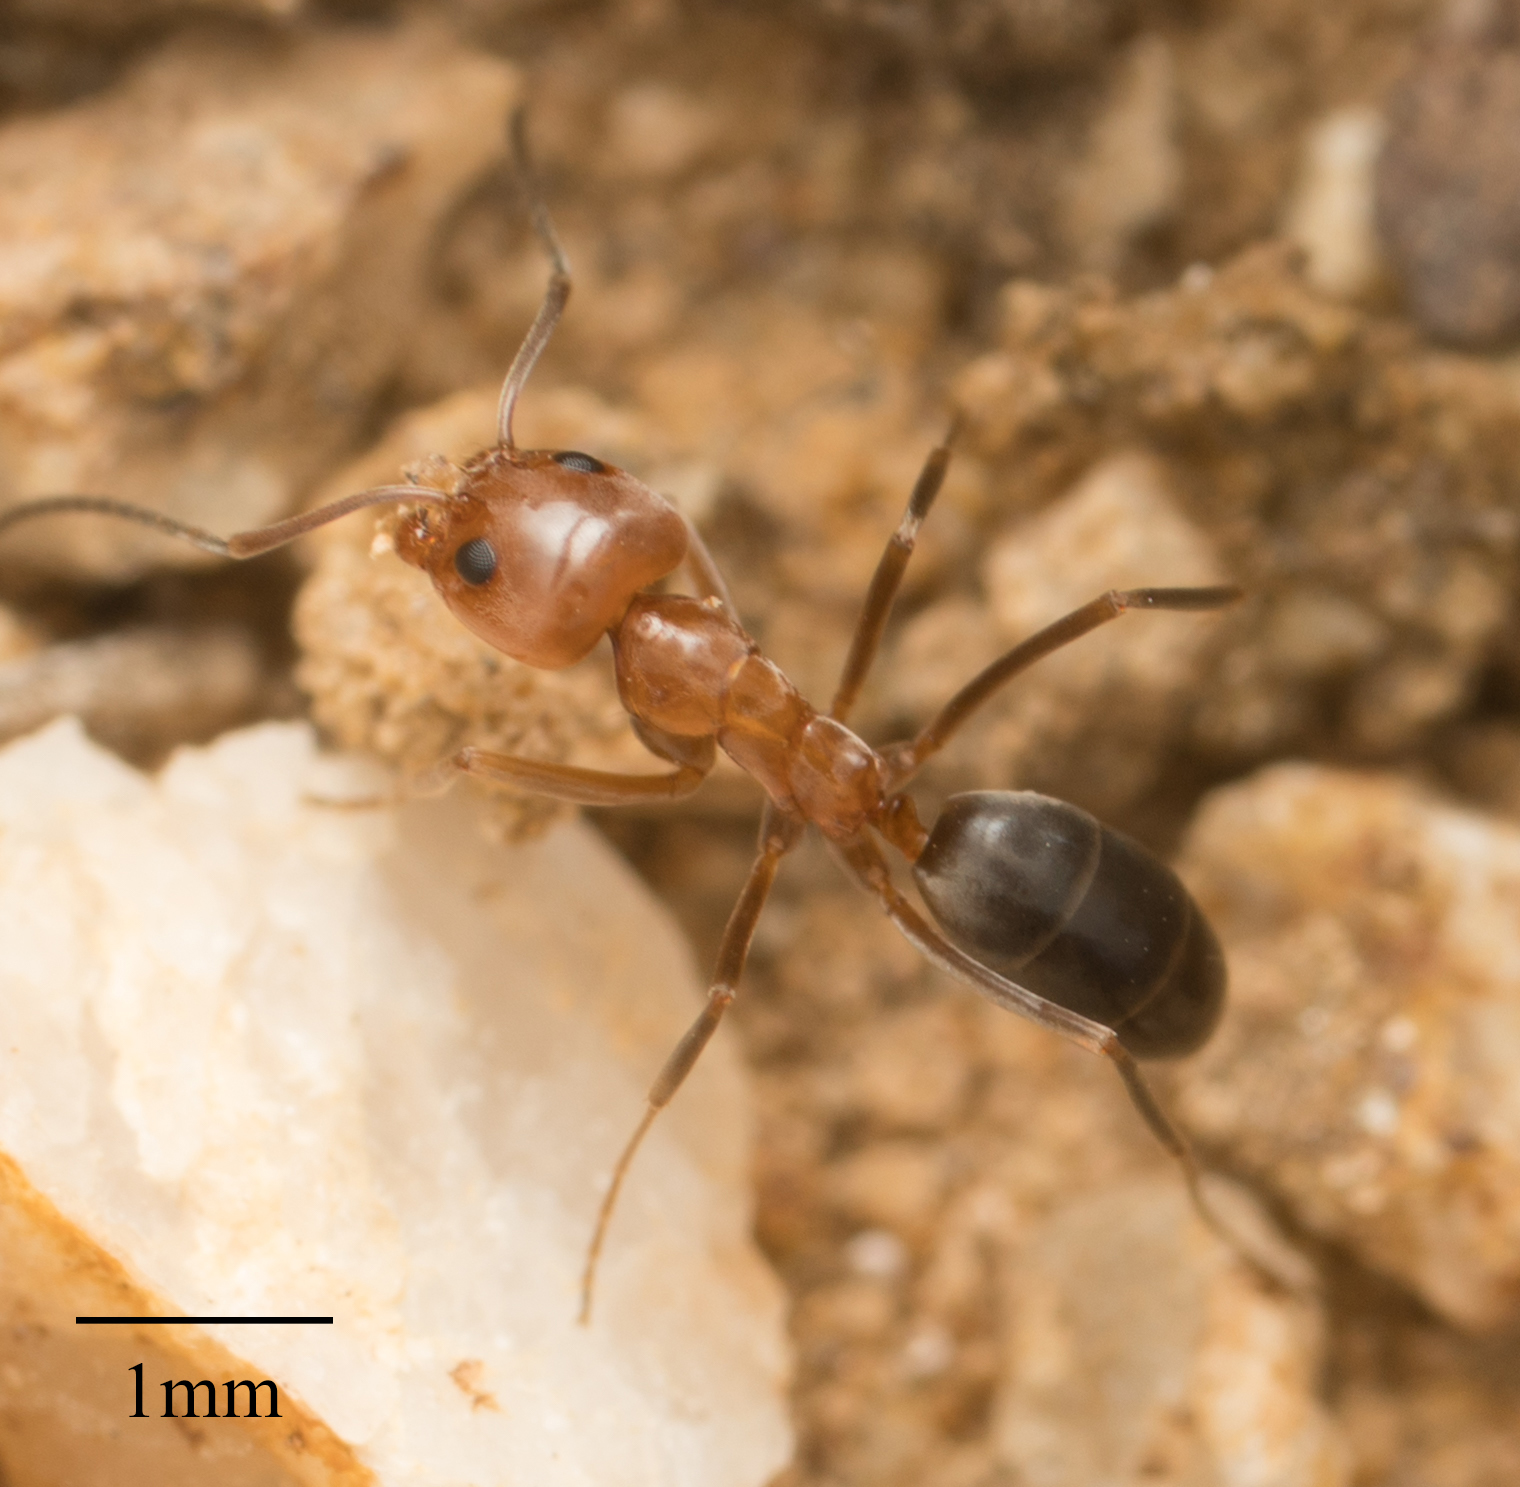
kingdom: Animalia
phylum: Arthropoda
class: Insecta
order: Hymenoptera
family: Formicidae
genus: Dorymyrmex
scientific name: Dorymyrmex bicolor
